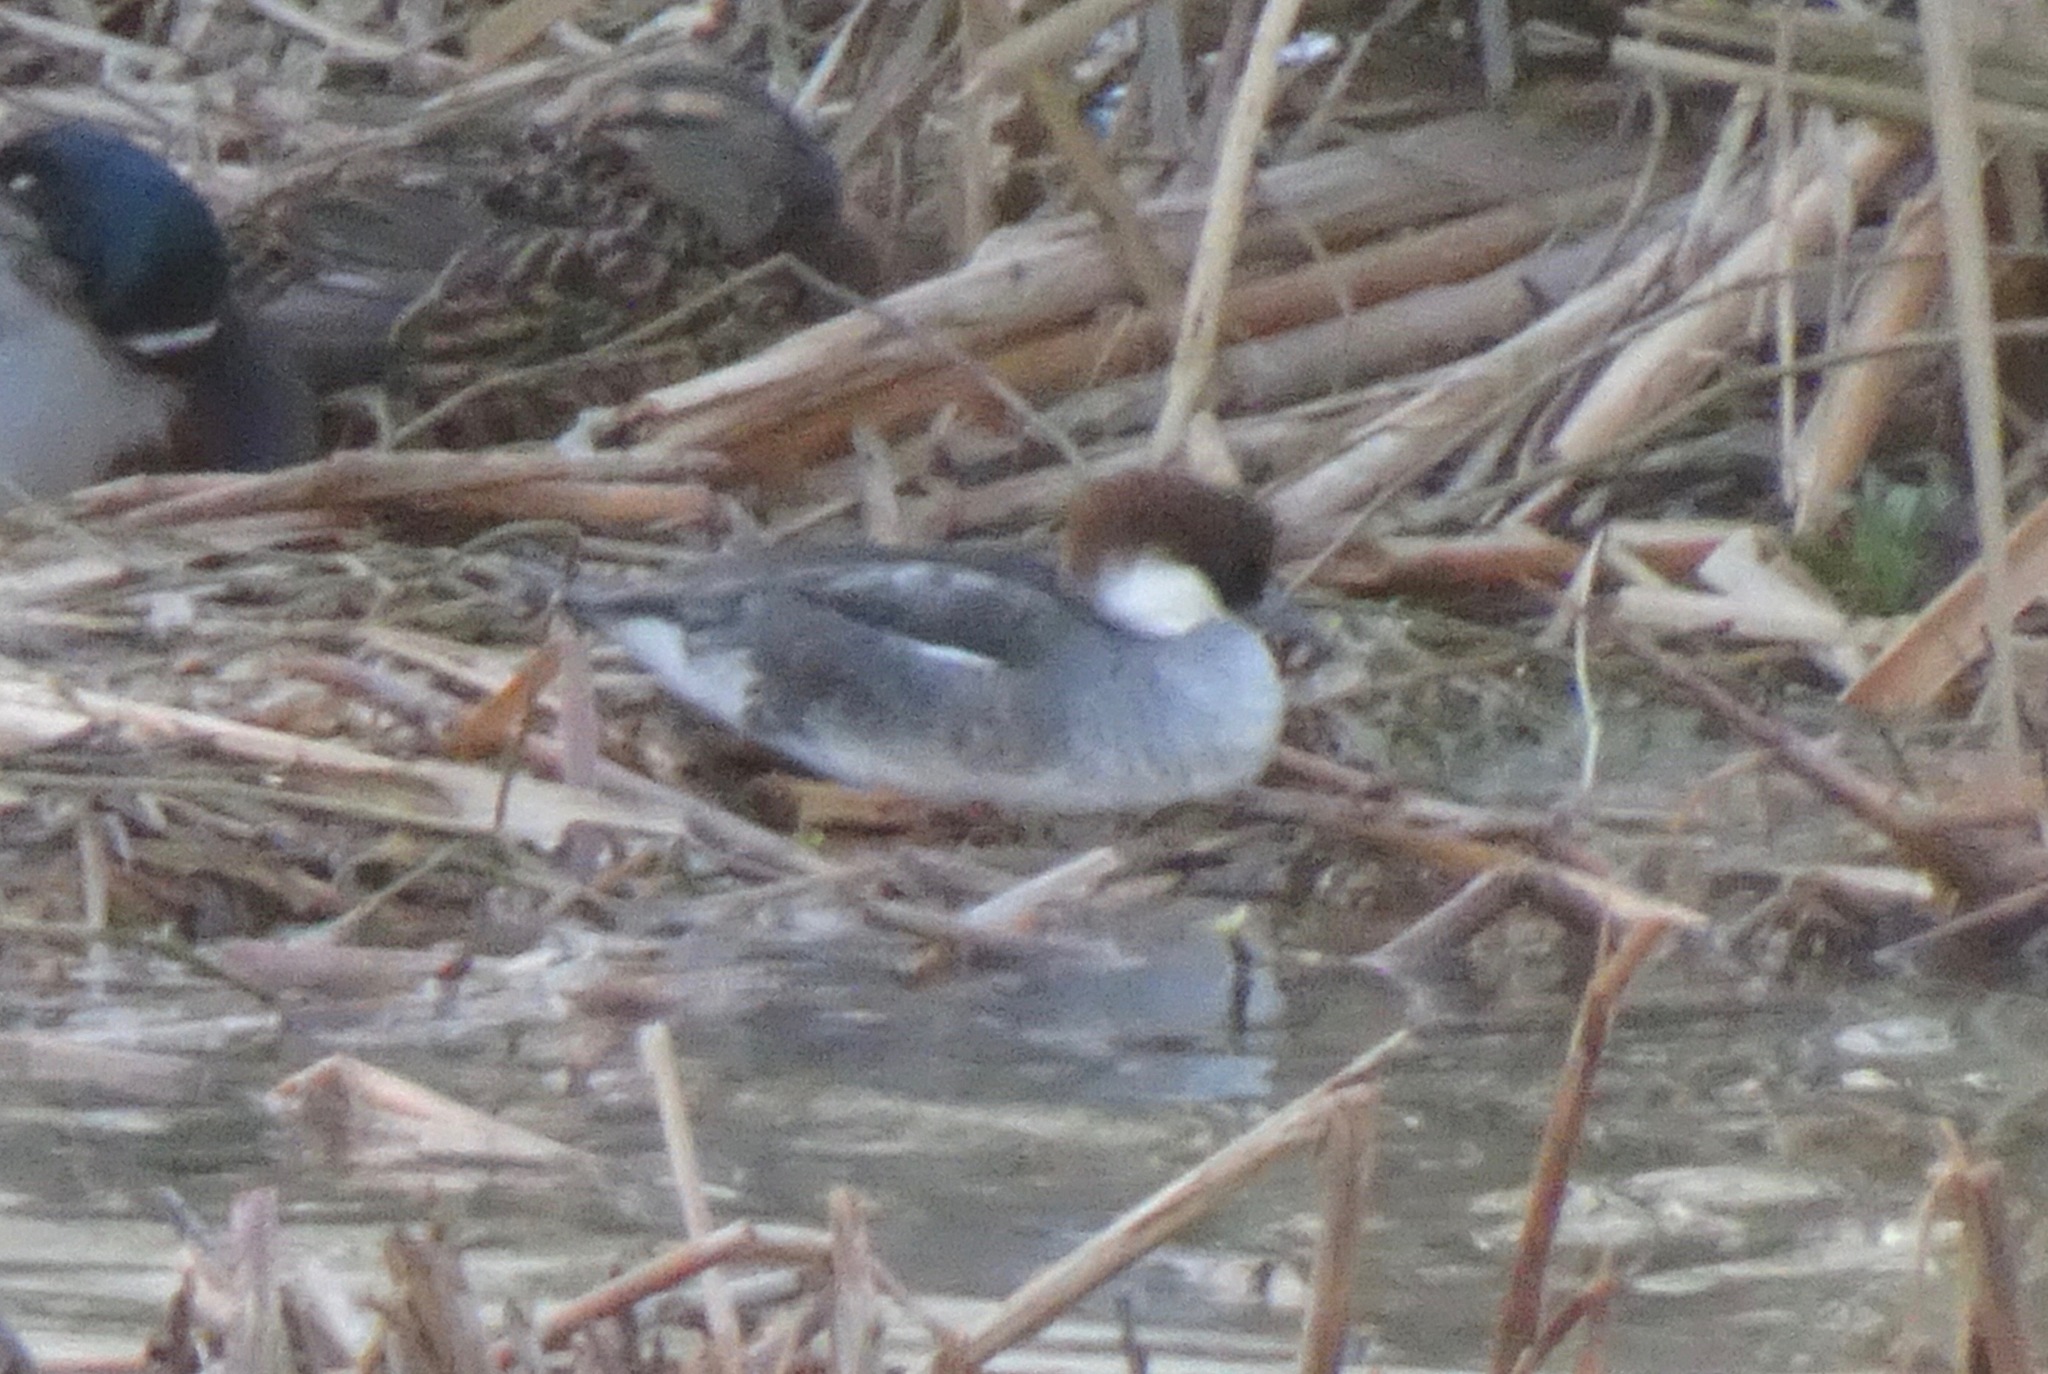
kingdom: Animalia
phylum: Chordata
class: Aves
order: Anseriformes
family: Anatidae
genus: Mergellus
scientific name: Mergellus albellus
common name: Smew
